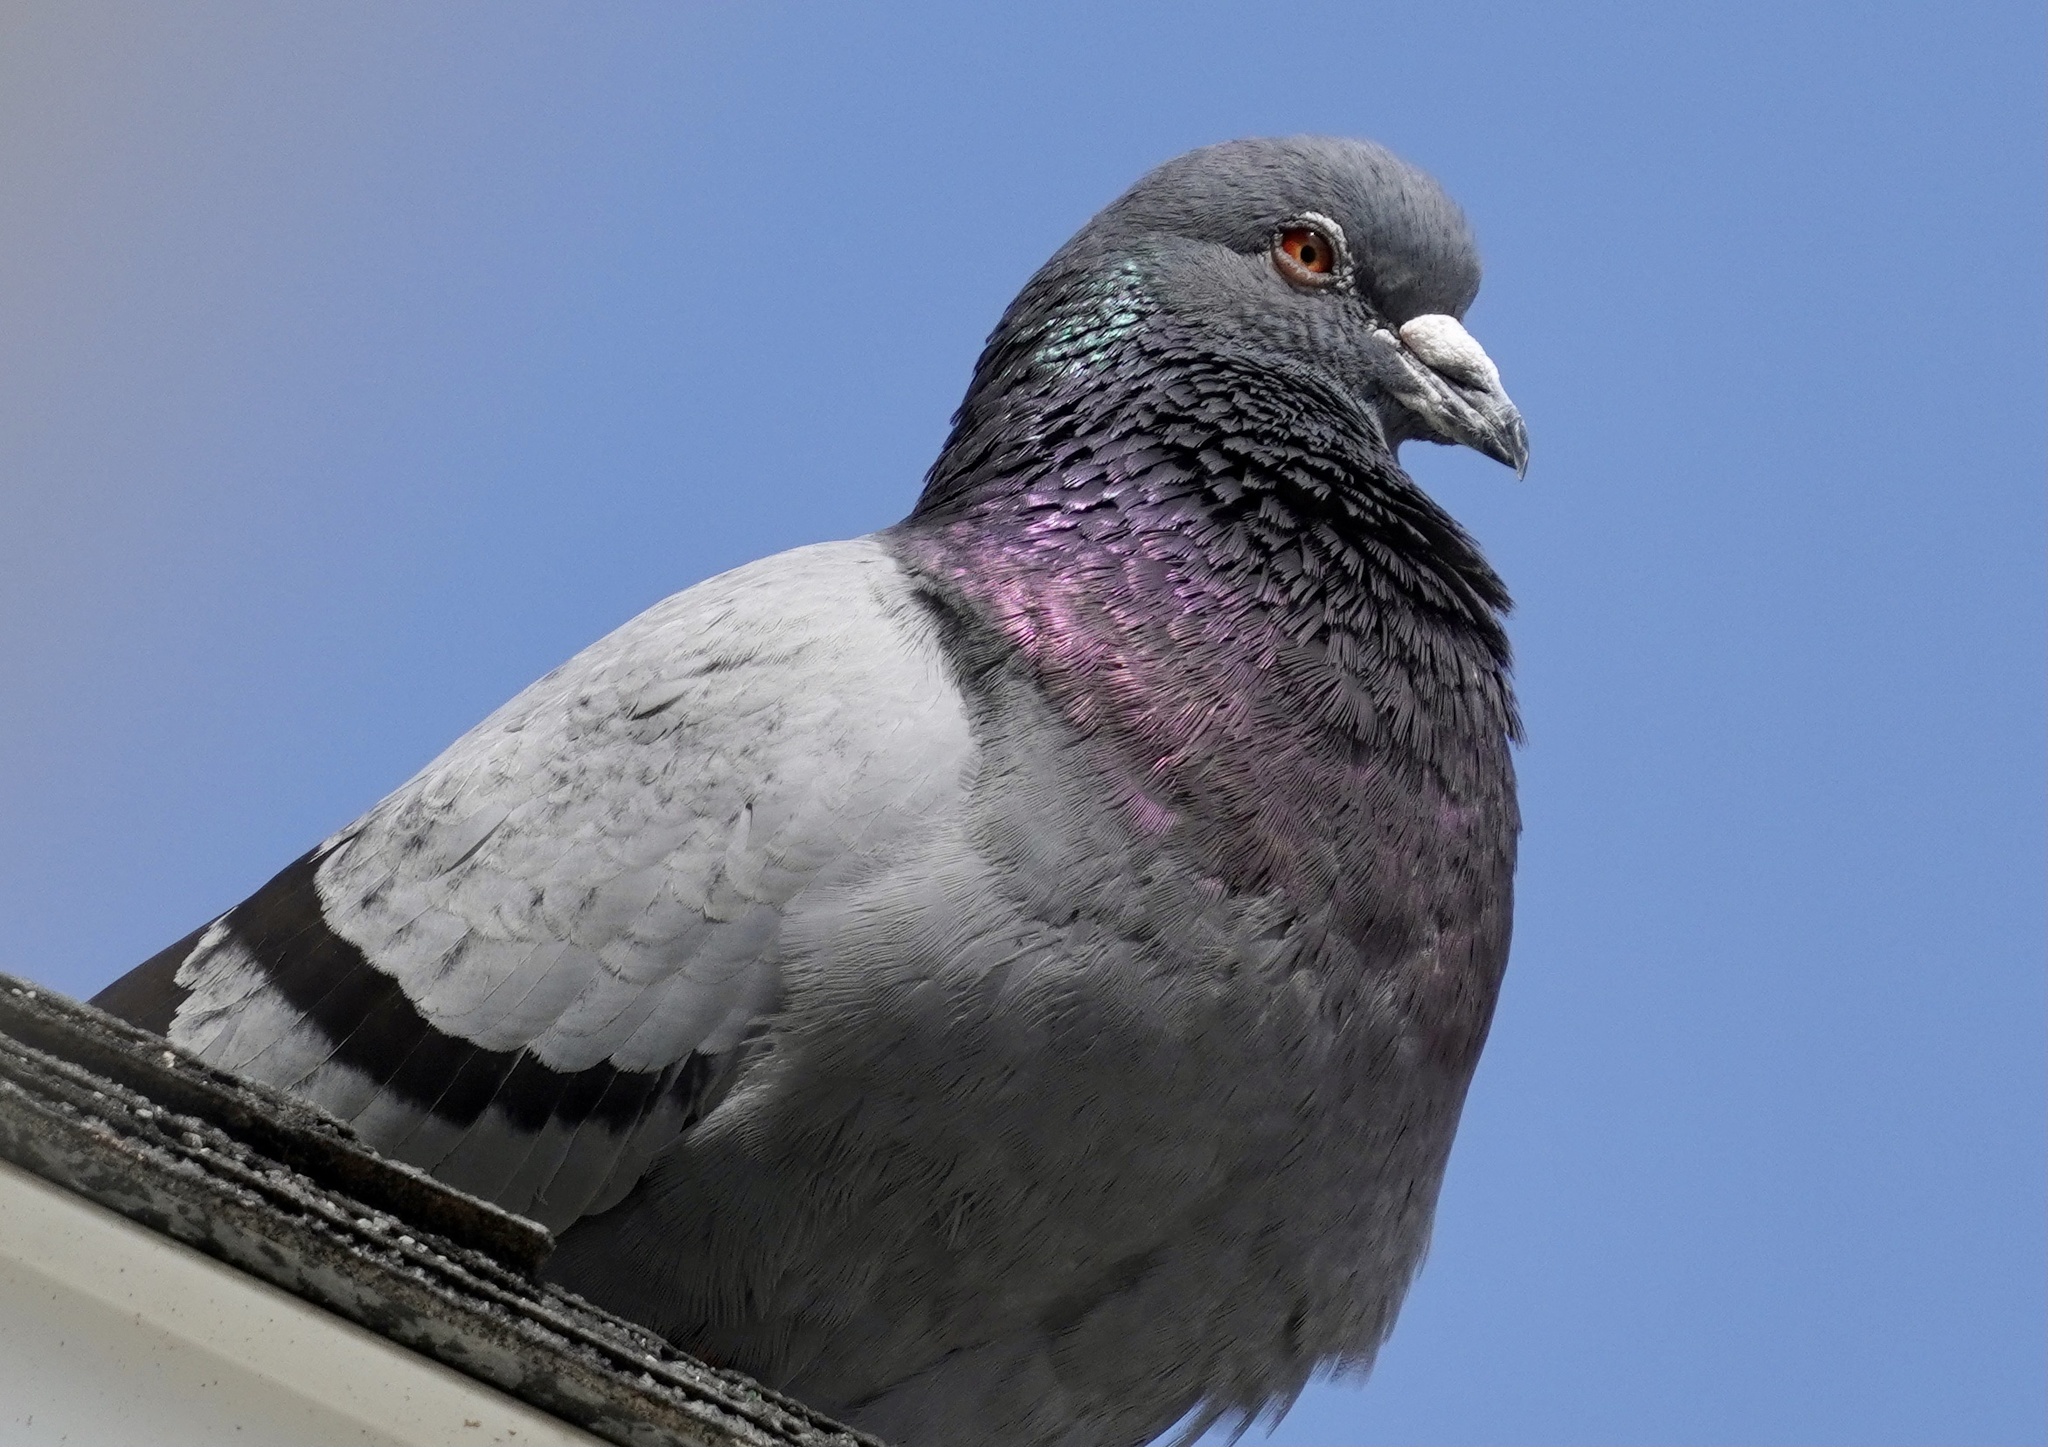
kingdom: Animalia
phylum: Chordata
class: Aves
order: Columbiformes
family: Columbidae
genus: Columba
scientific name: Columba livia
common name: Rock pigeon
